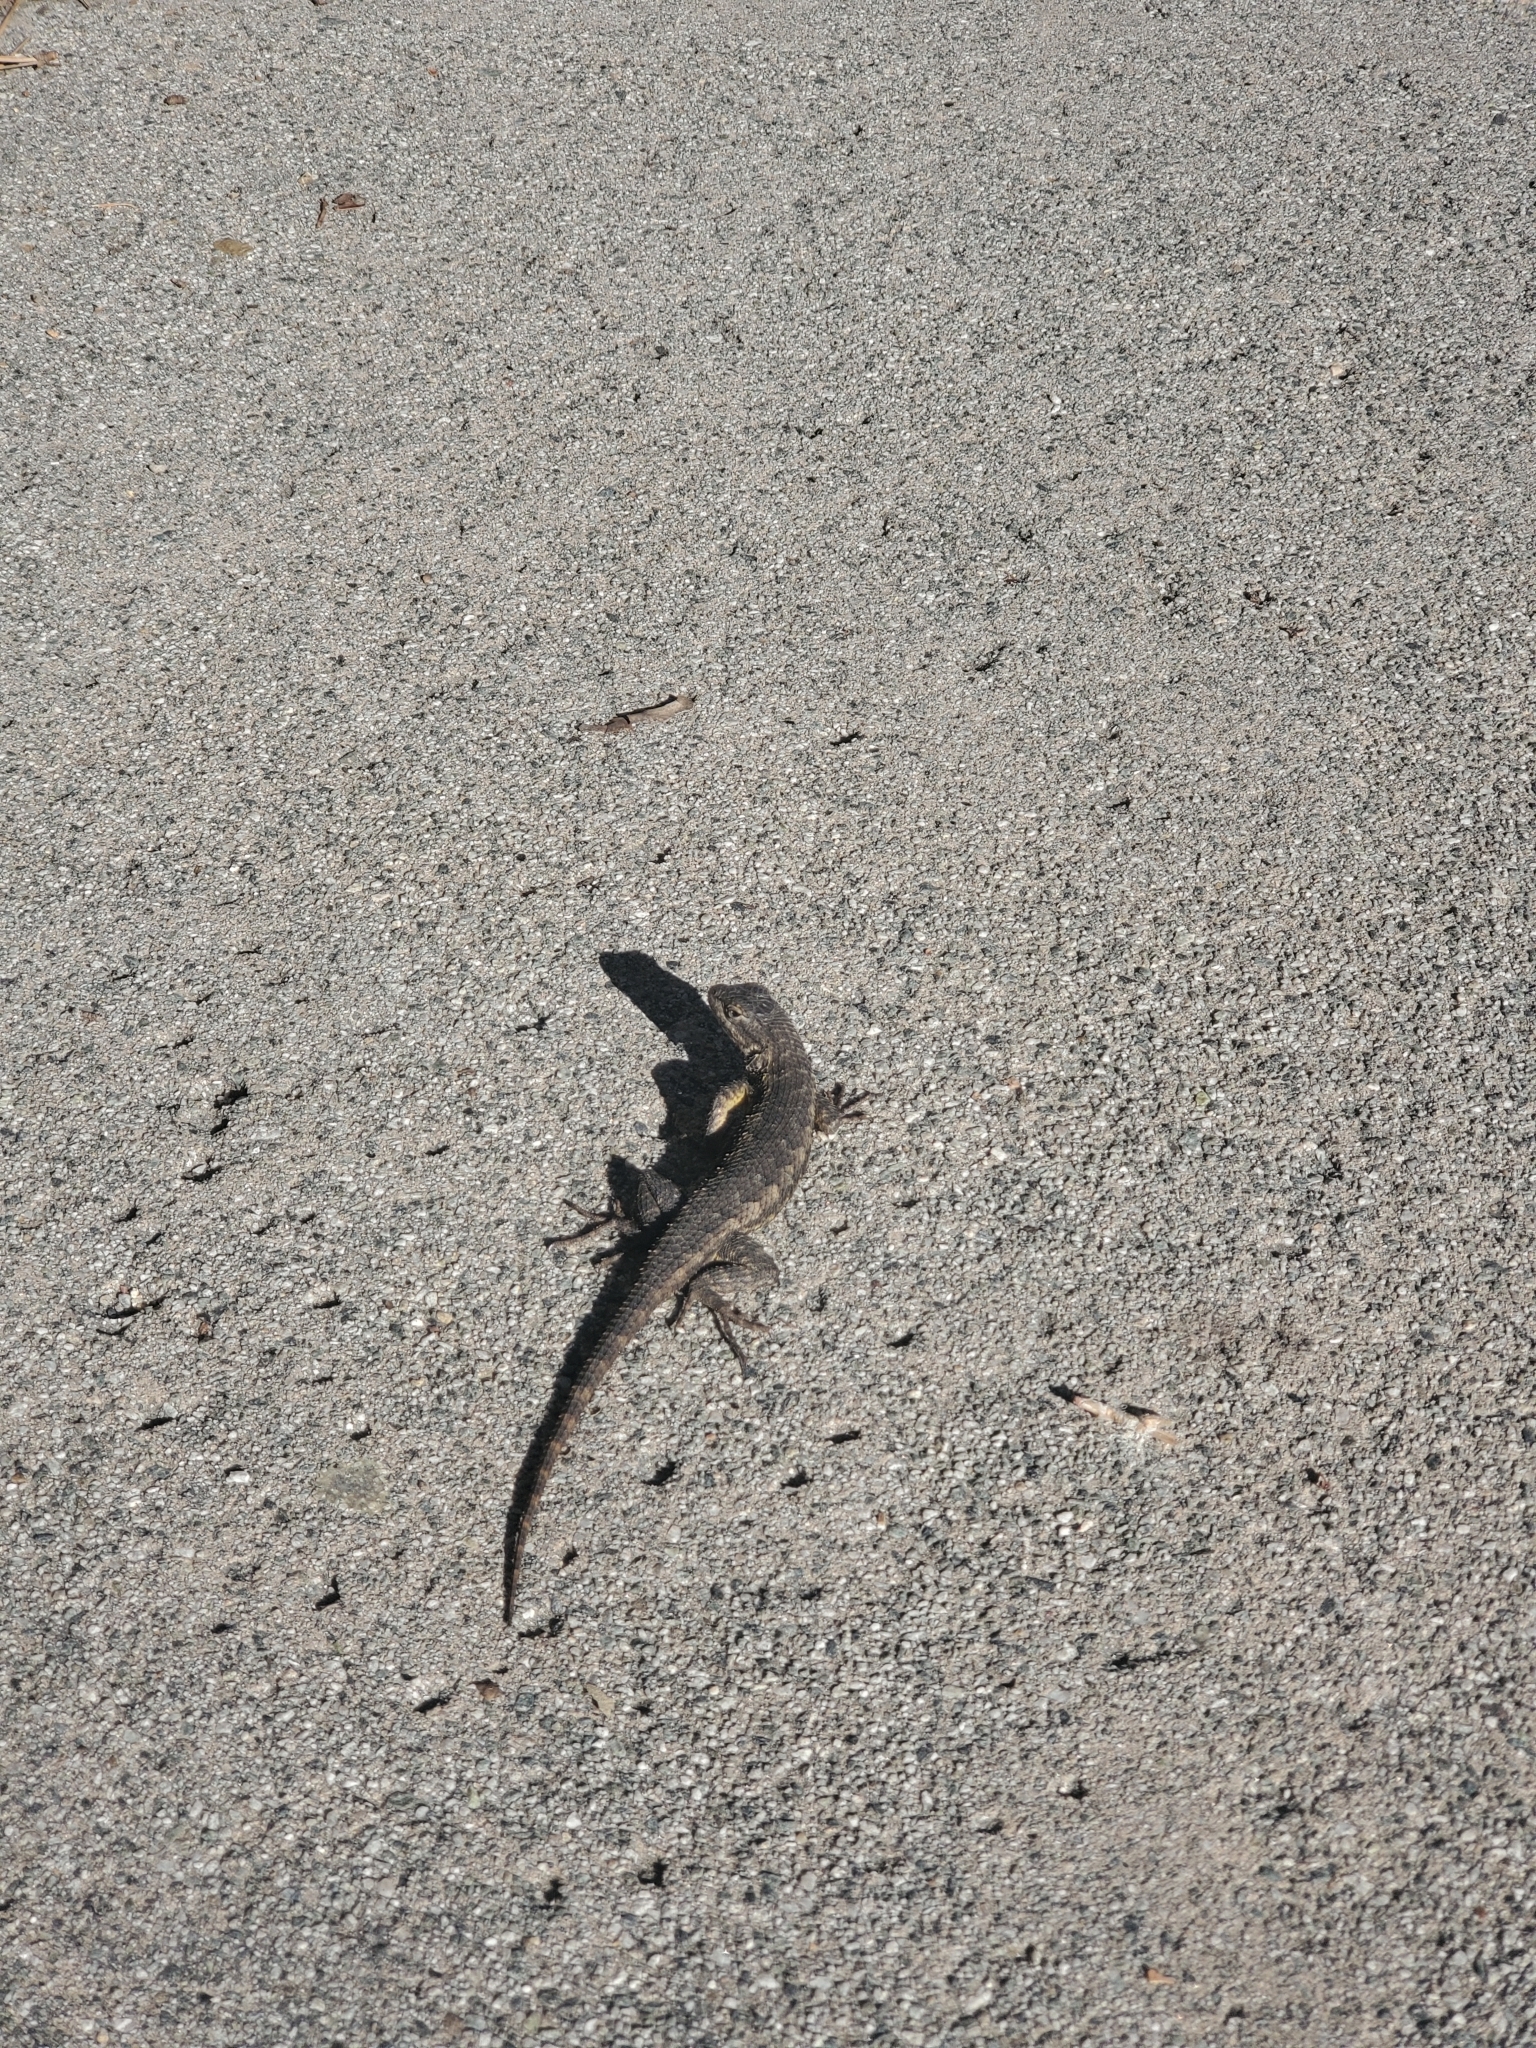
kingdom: Animalia
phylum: Chordata
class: Squamata
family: Phrynosomatidae
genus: Sceloporus
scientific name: Sceloporus occidentalis
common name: Western fence lizard
